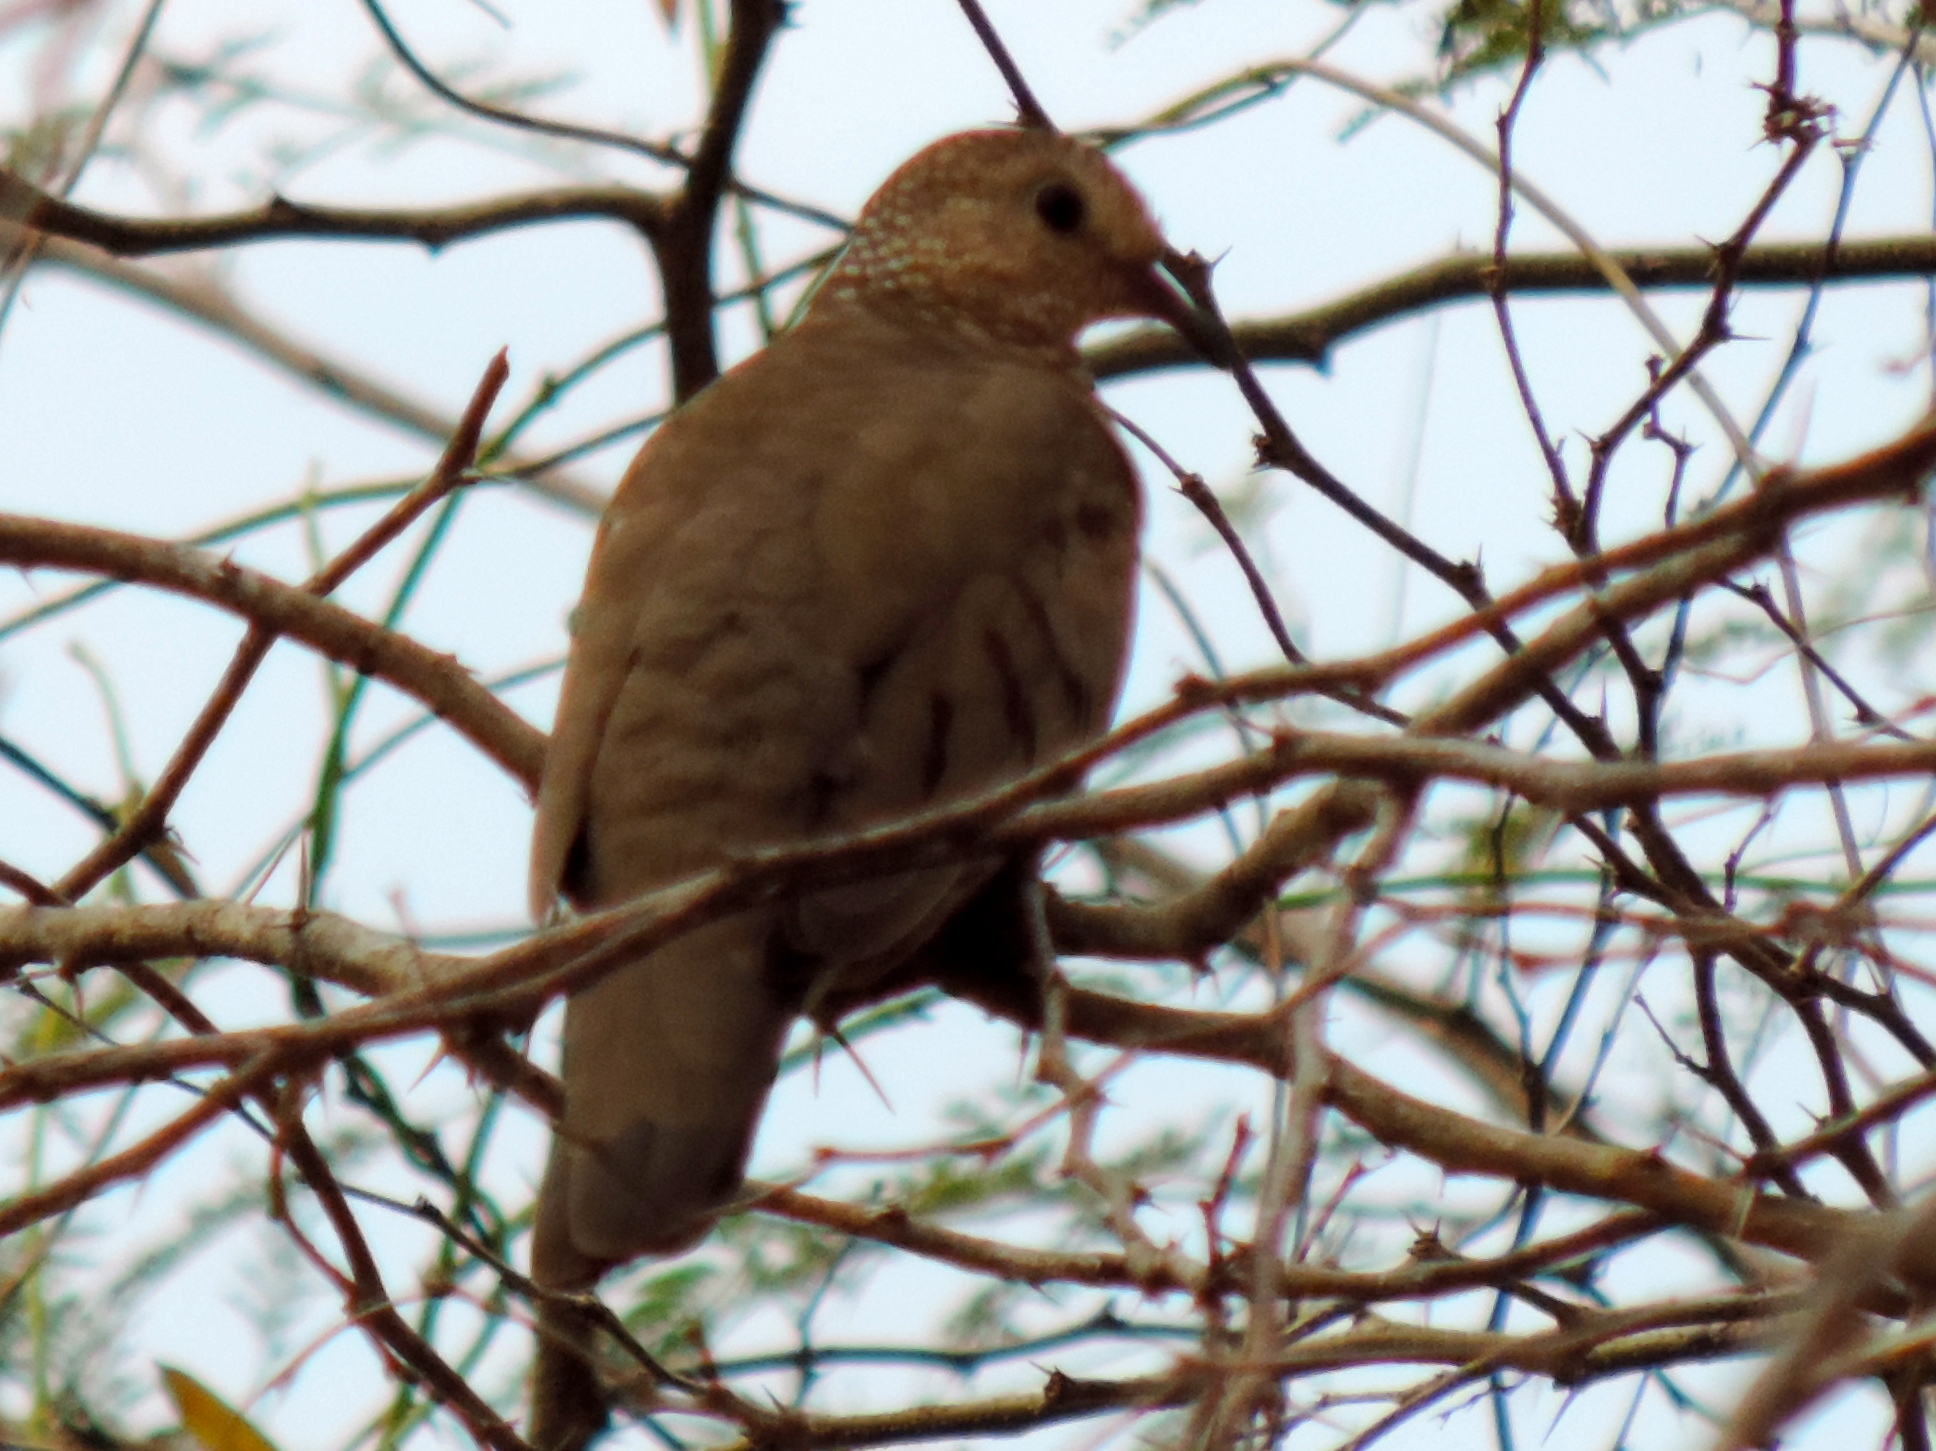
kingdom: Animalia
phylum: Chordata
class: Aves
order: Columbiformes
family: Columbidae
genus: Columbina
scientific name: Columbina passerina
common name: Common ground-dove
